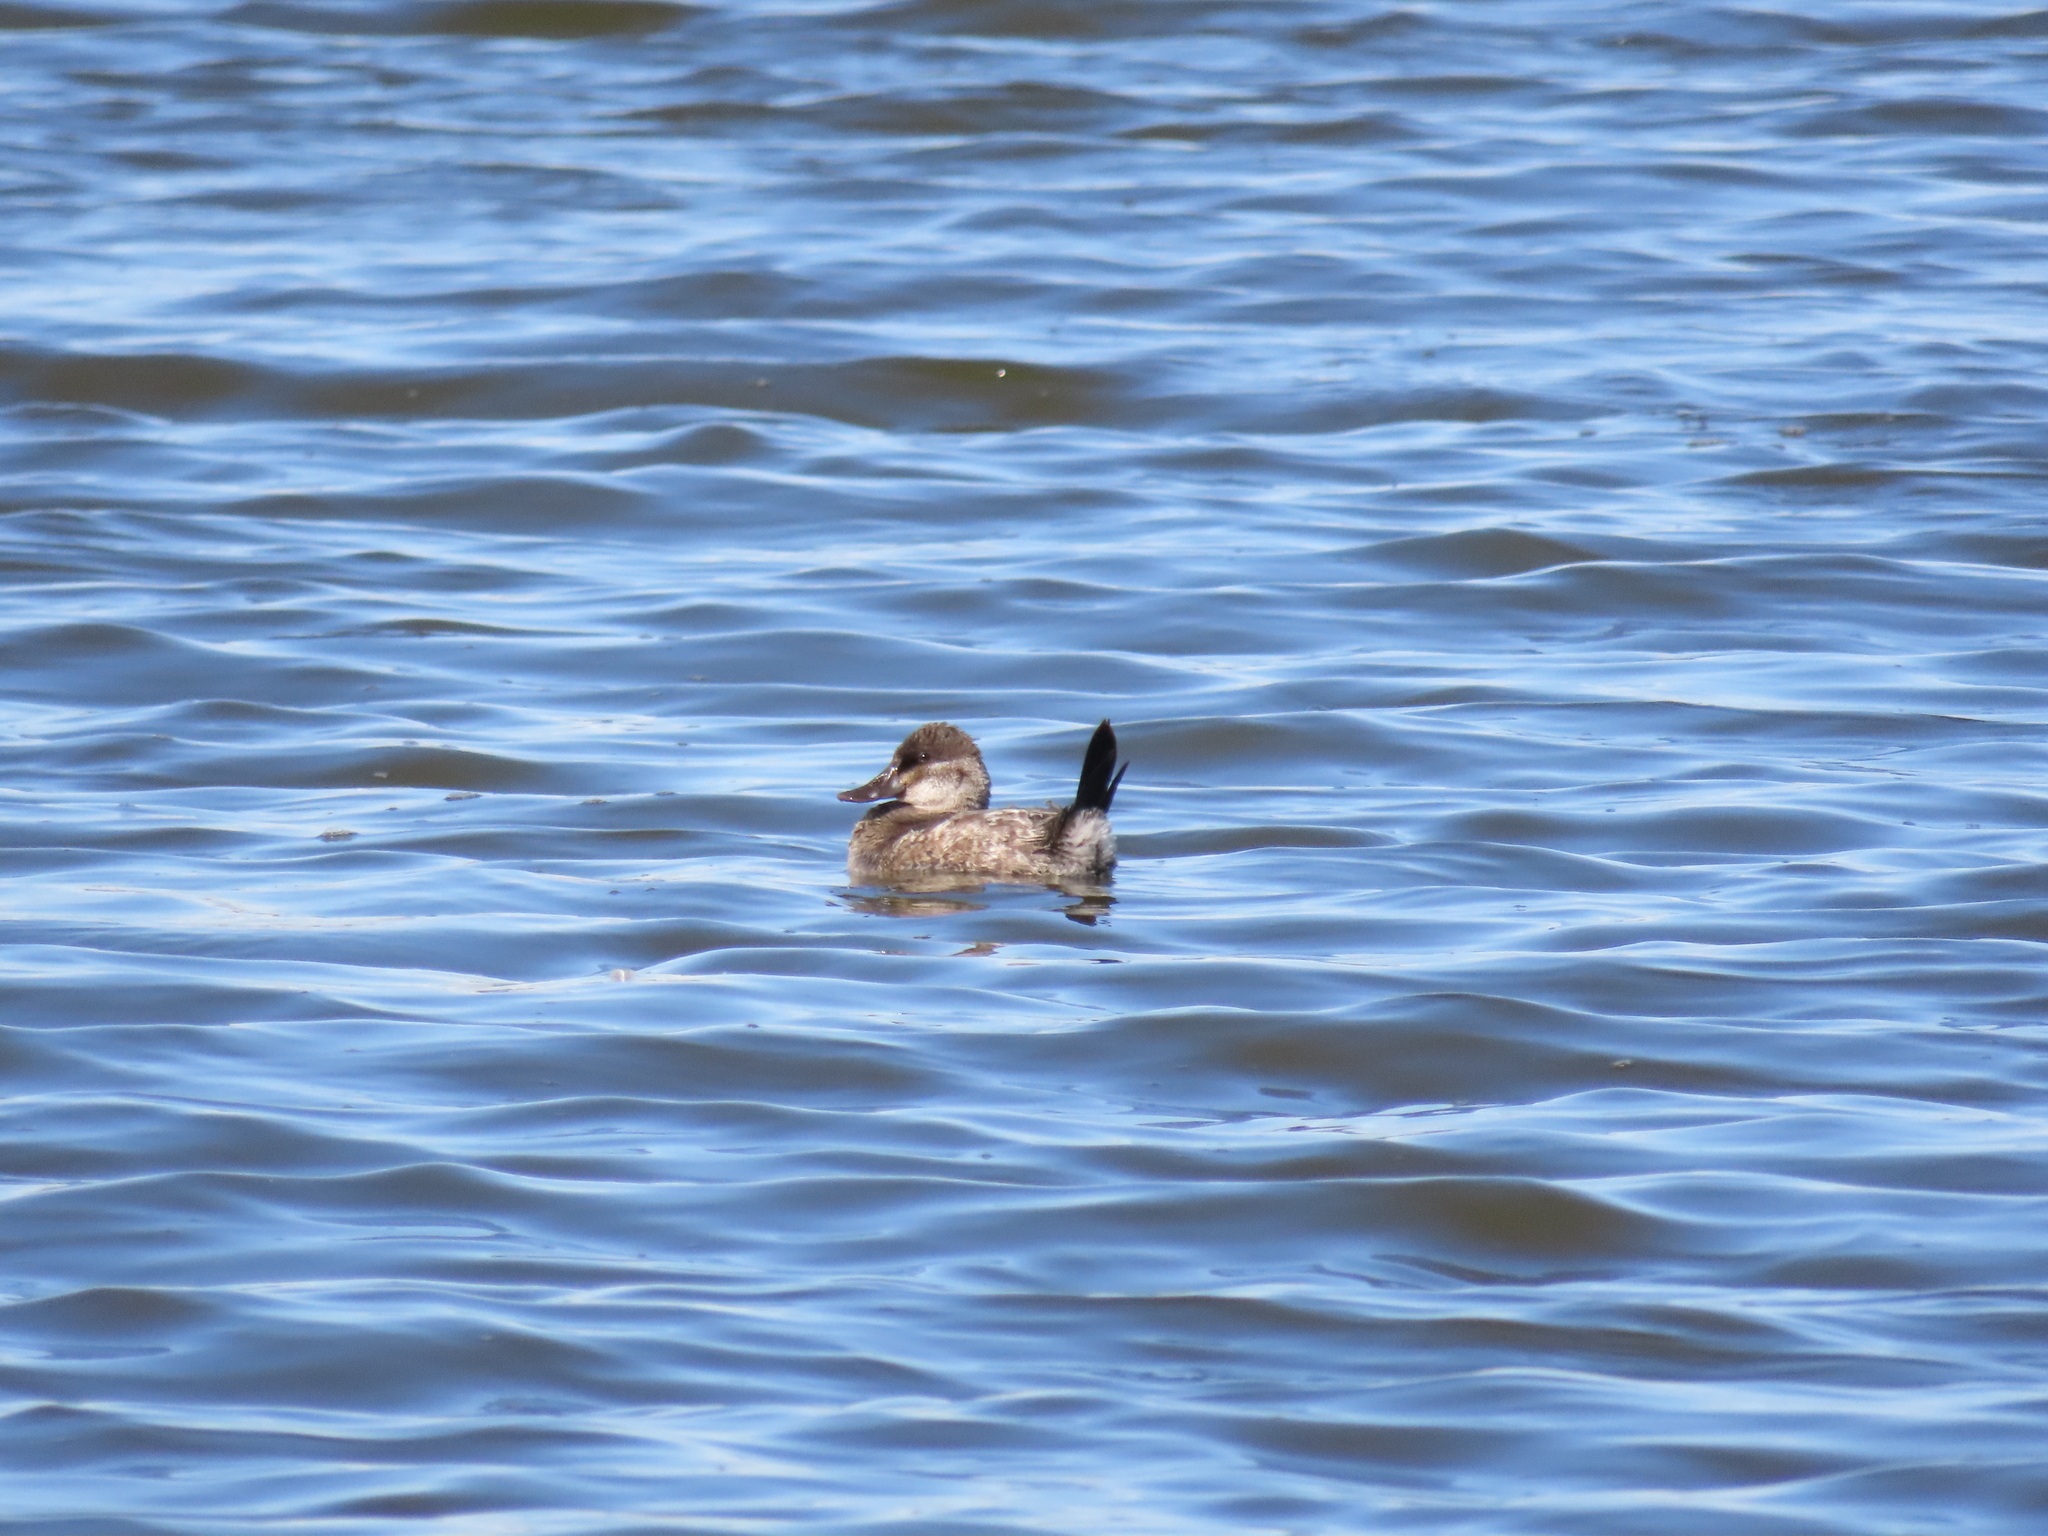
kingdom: Animalia
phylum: Chordata
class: Aves
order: Anseriformes
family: Anatidae
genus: Oxyura
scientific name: Oxyura jamaicensis
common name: Ruddy duck
